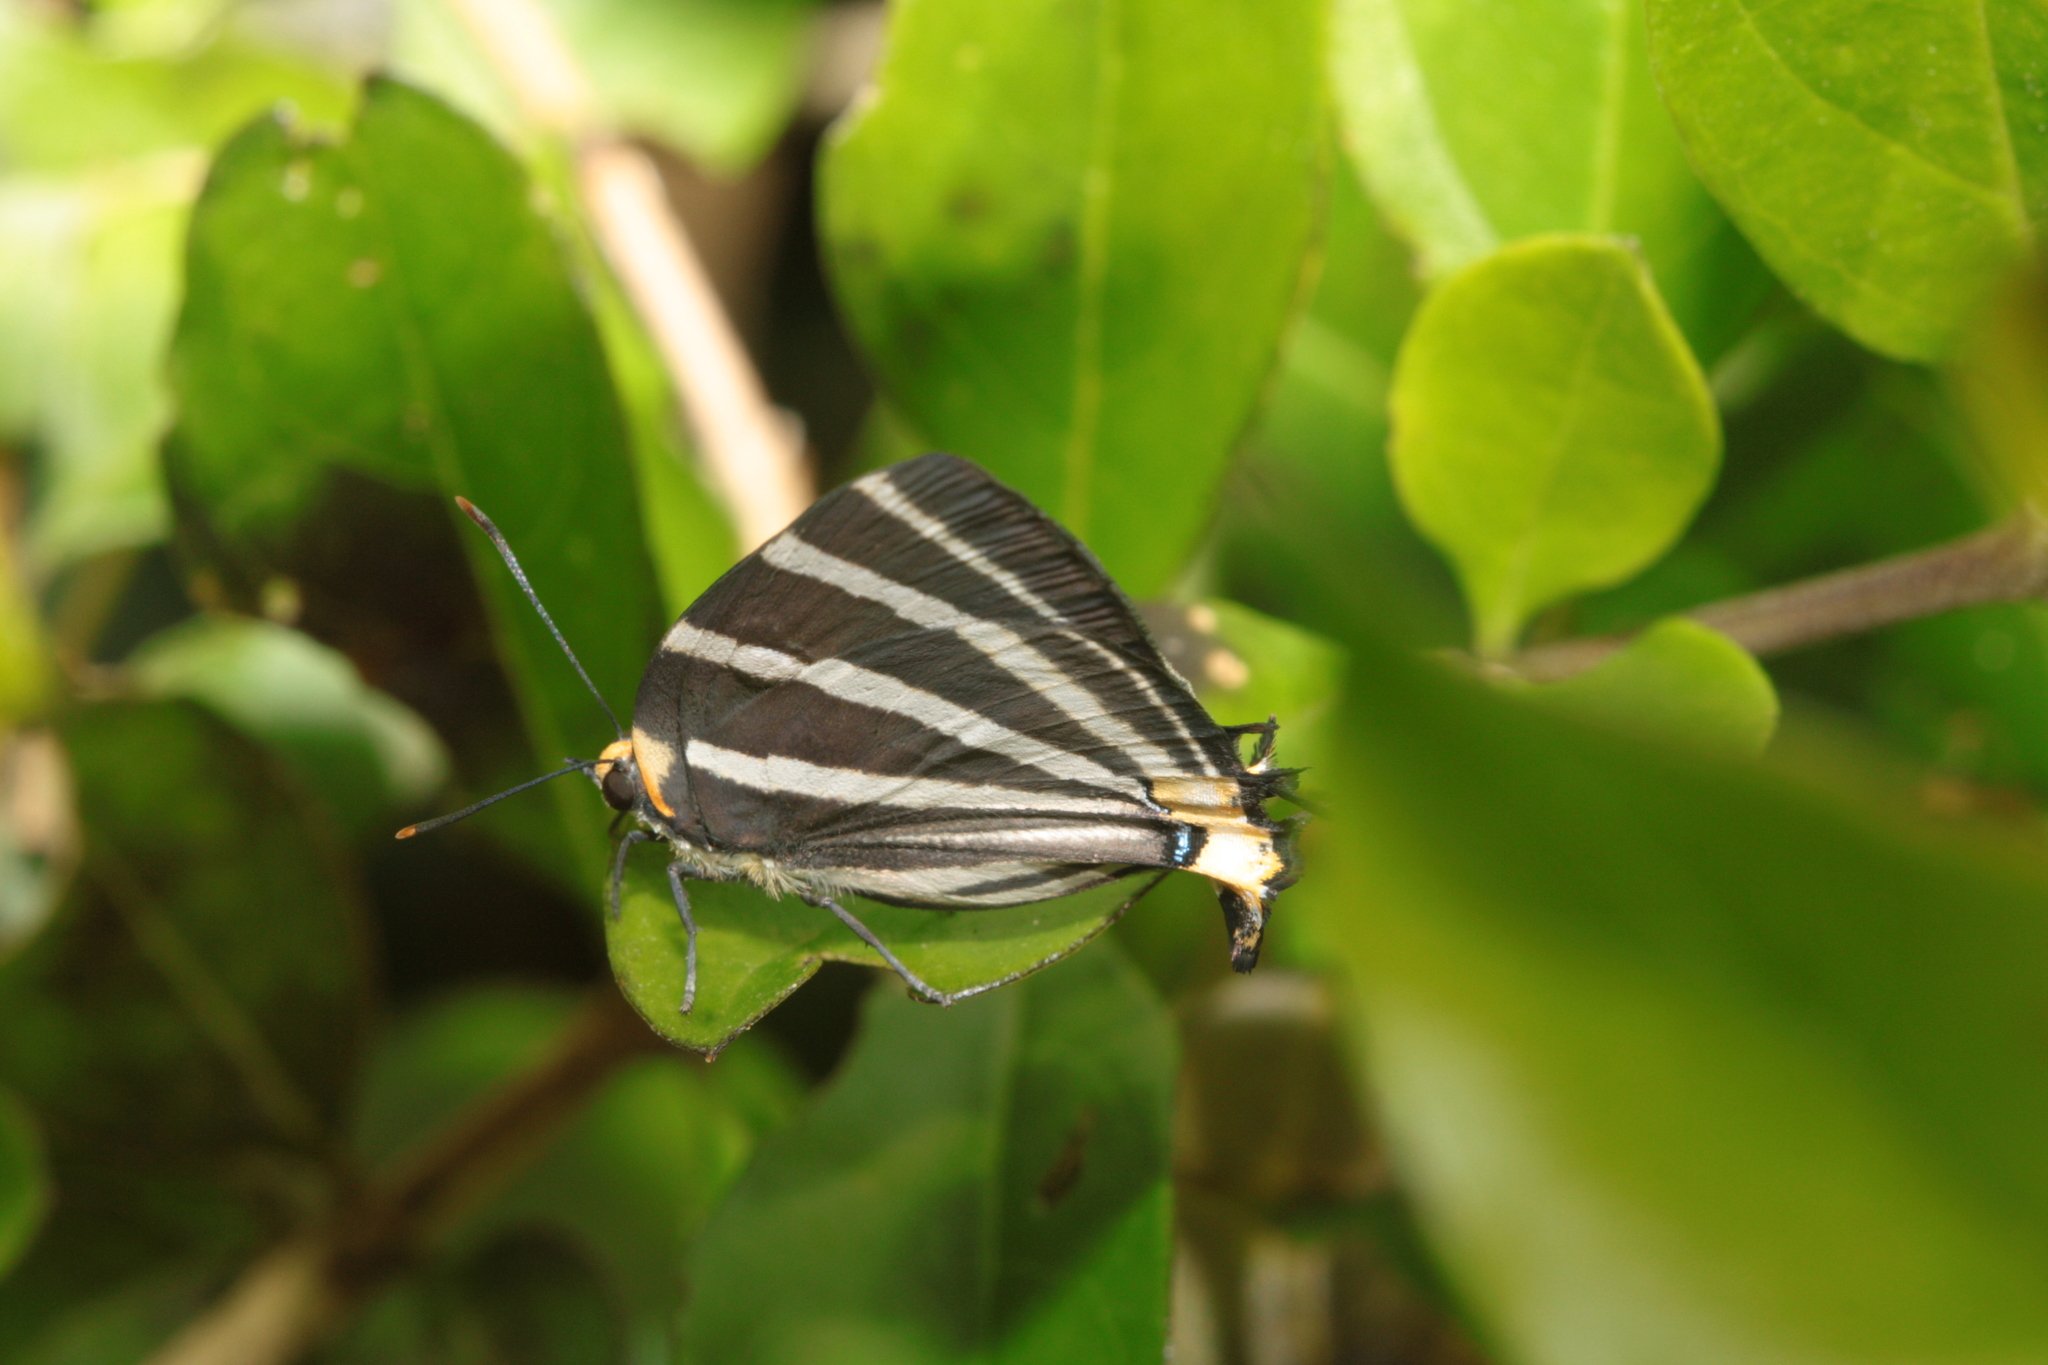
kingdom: Animalia
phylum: Arthropoda
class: Insecta
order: Lepidoptera
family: Lycaenidae
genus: Thecla
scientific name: Thecla bathildis
